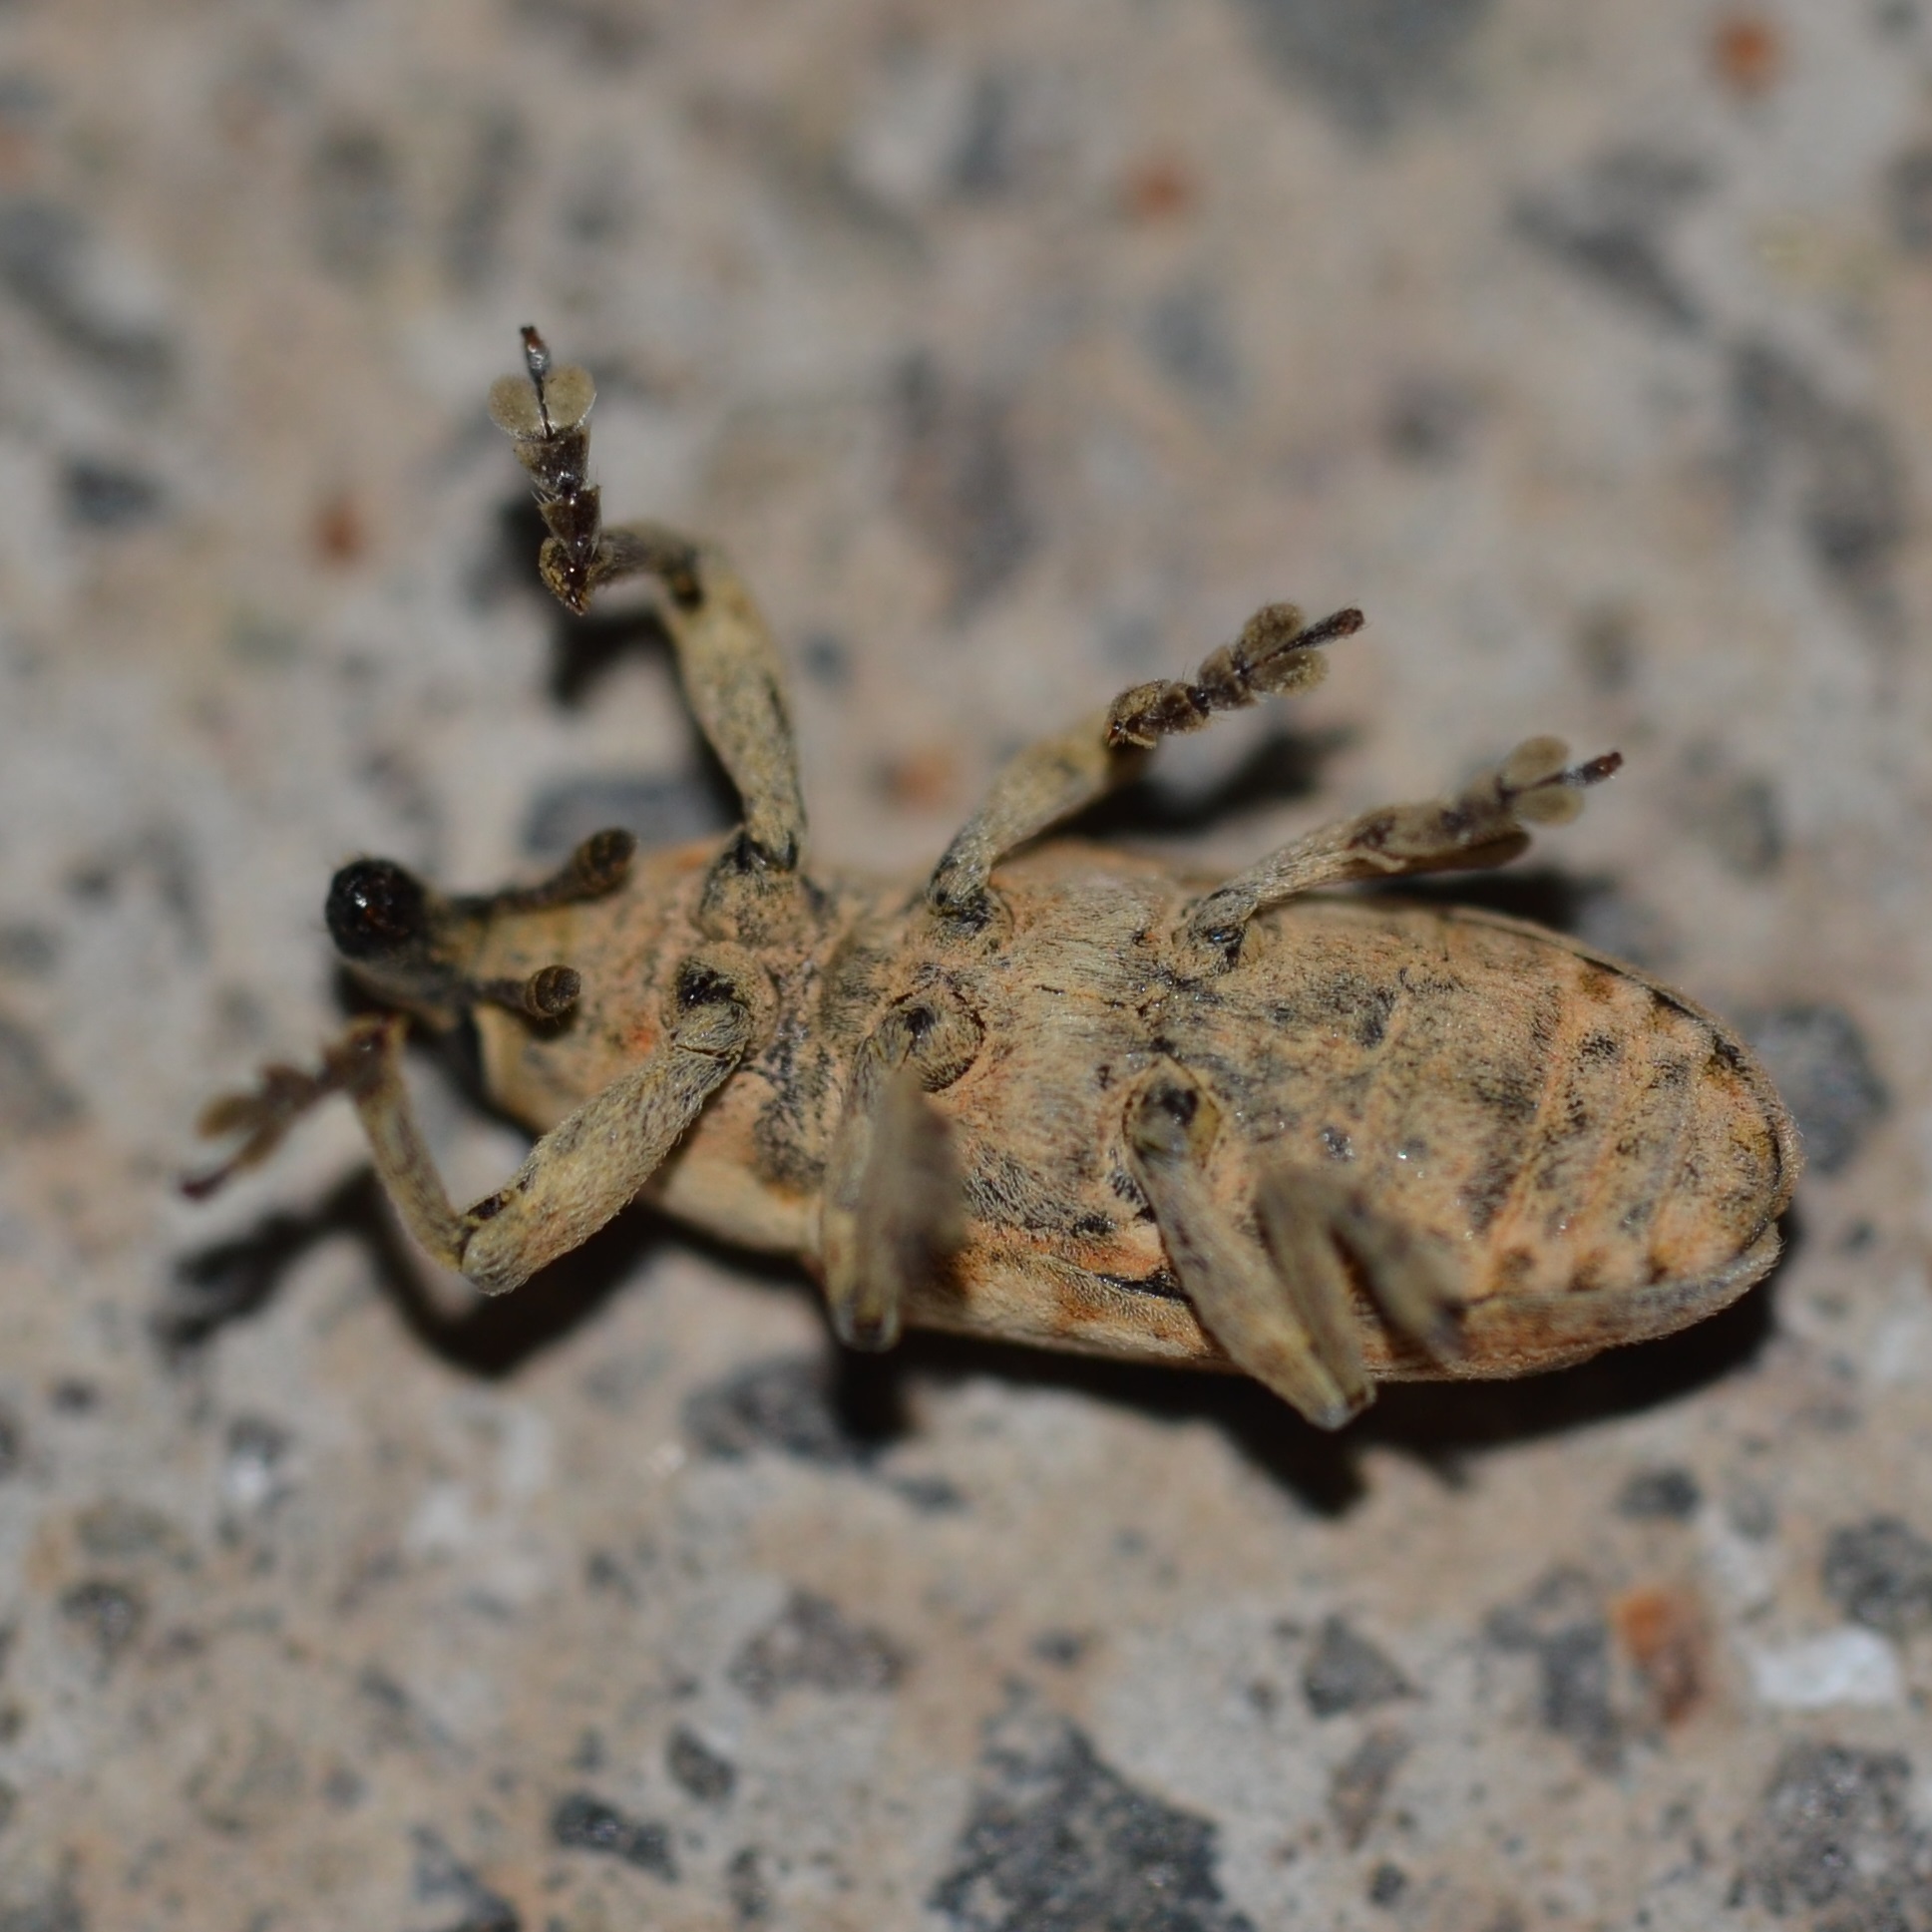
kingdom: Animalia
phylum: Arthropoda
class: Insecta
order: Coleoptera
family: Curculionidae
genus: Hypolixus
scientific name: Hypolixus
